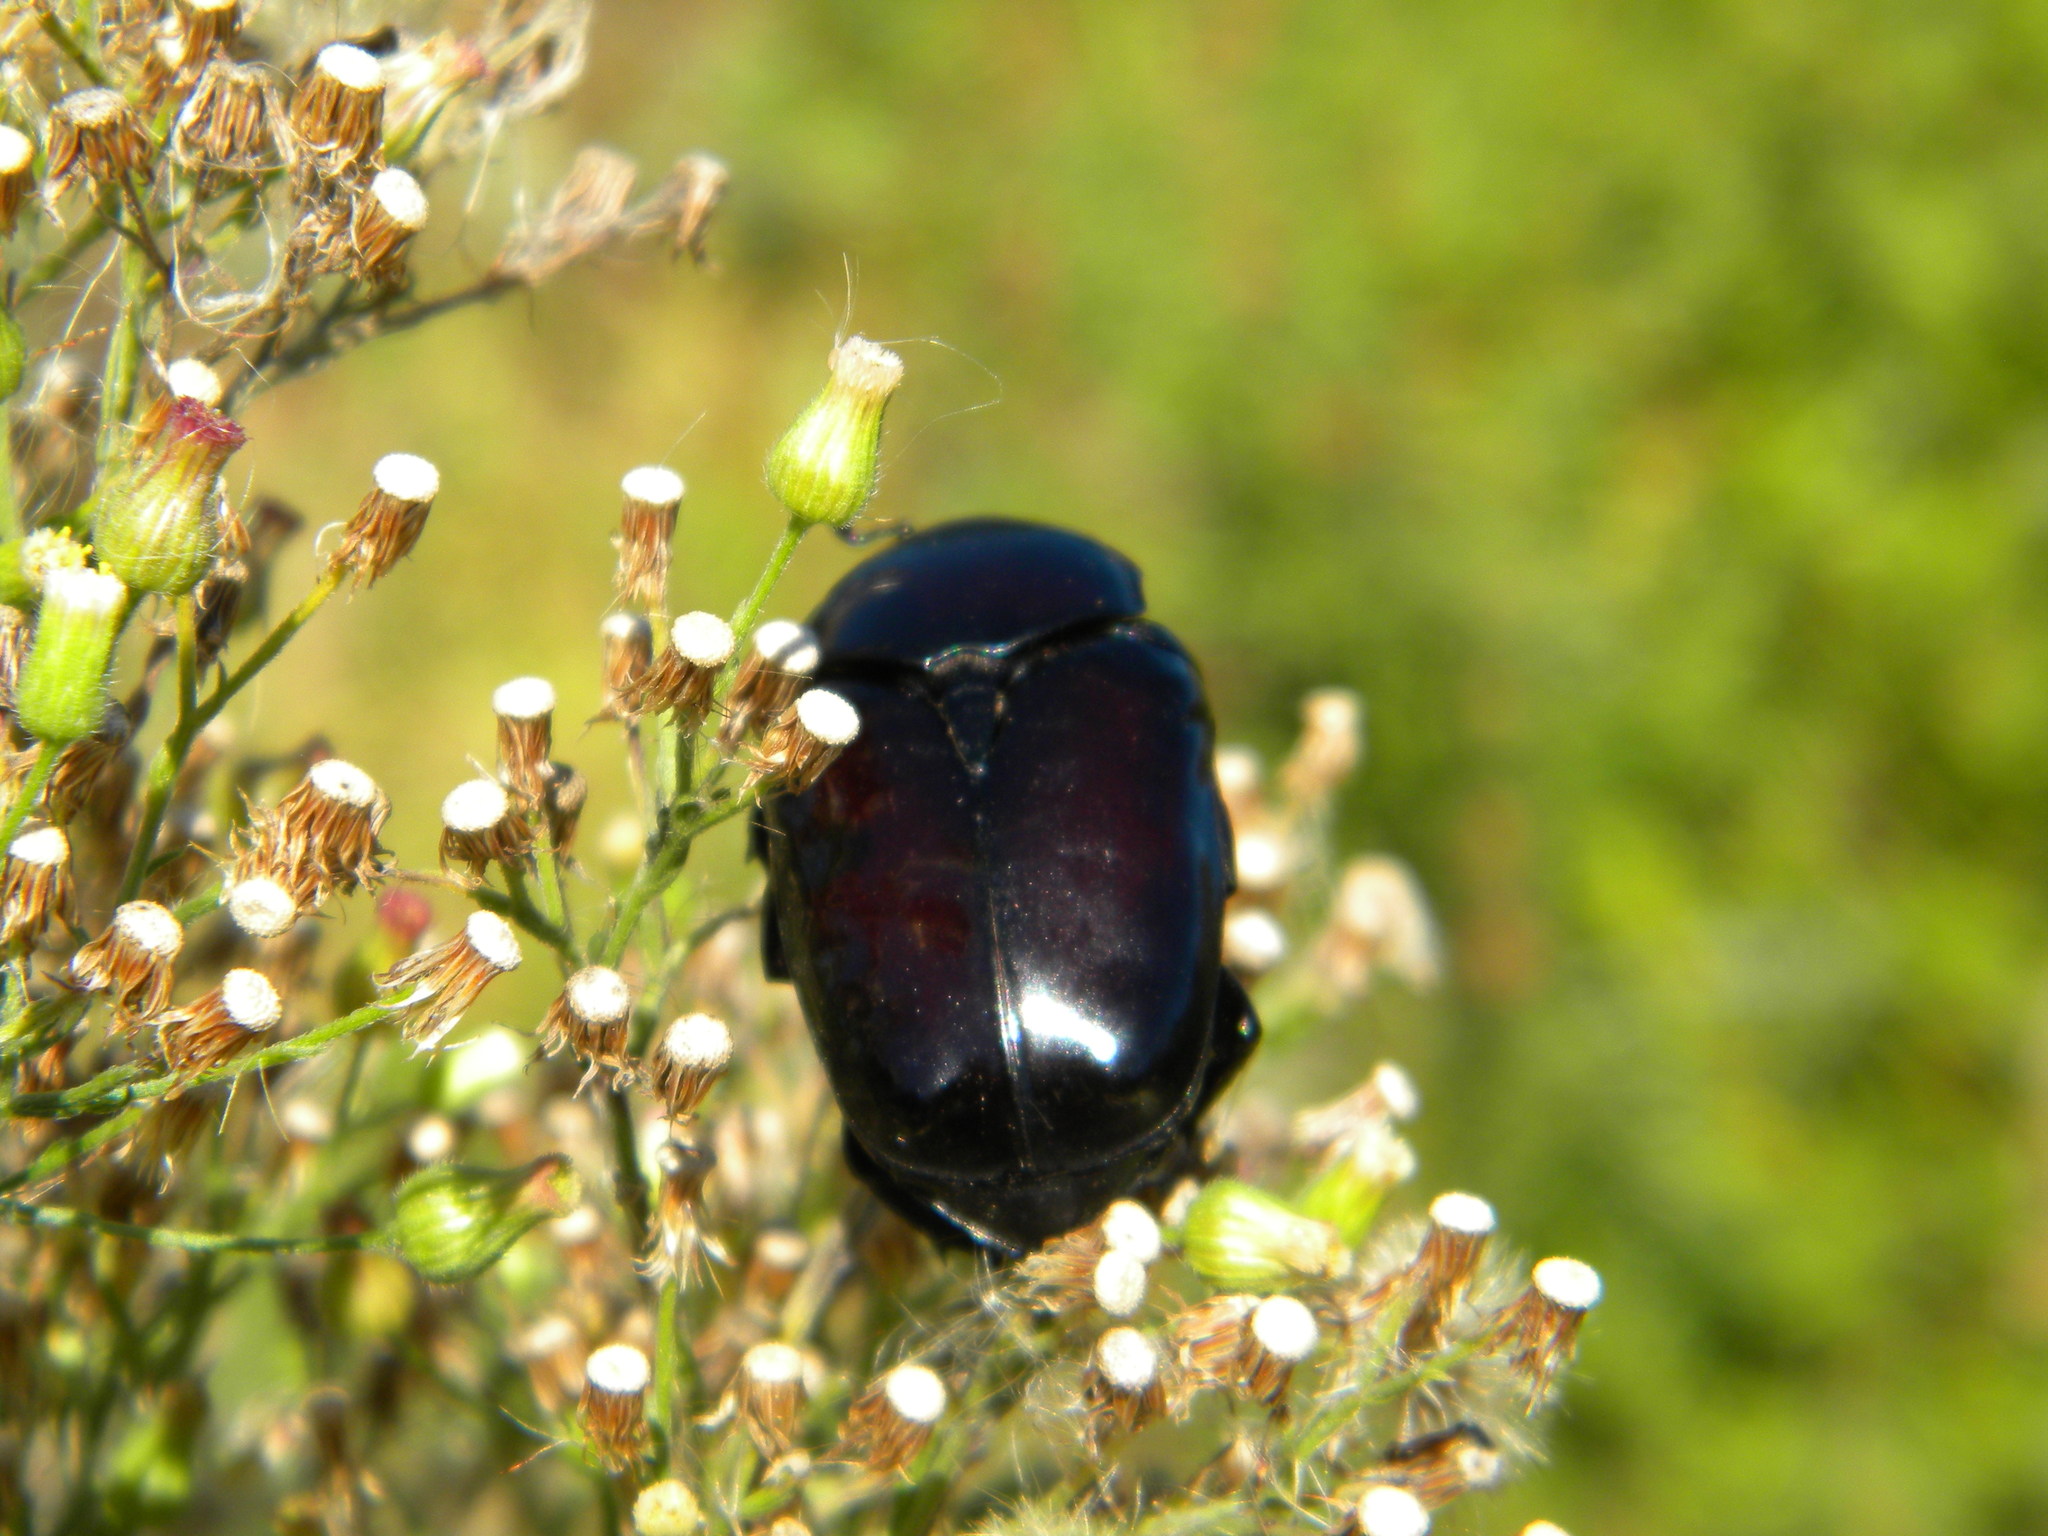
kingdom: Animalia
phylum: Arthropoda
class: Insecta
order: Coleoptera
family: Scarabaeidae
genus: Diplognatha
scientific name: Diplognatha gagates
